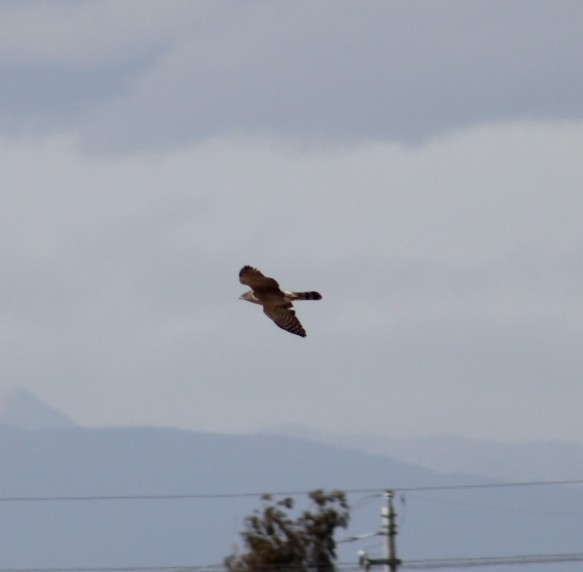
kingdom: Animalia
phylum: Chordata
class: Aves
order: Accipitriformes
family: Accipitridae
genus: Accipiter
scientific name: Accipiter cooperii
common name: Cooper's hawk
